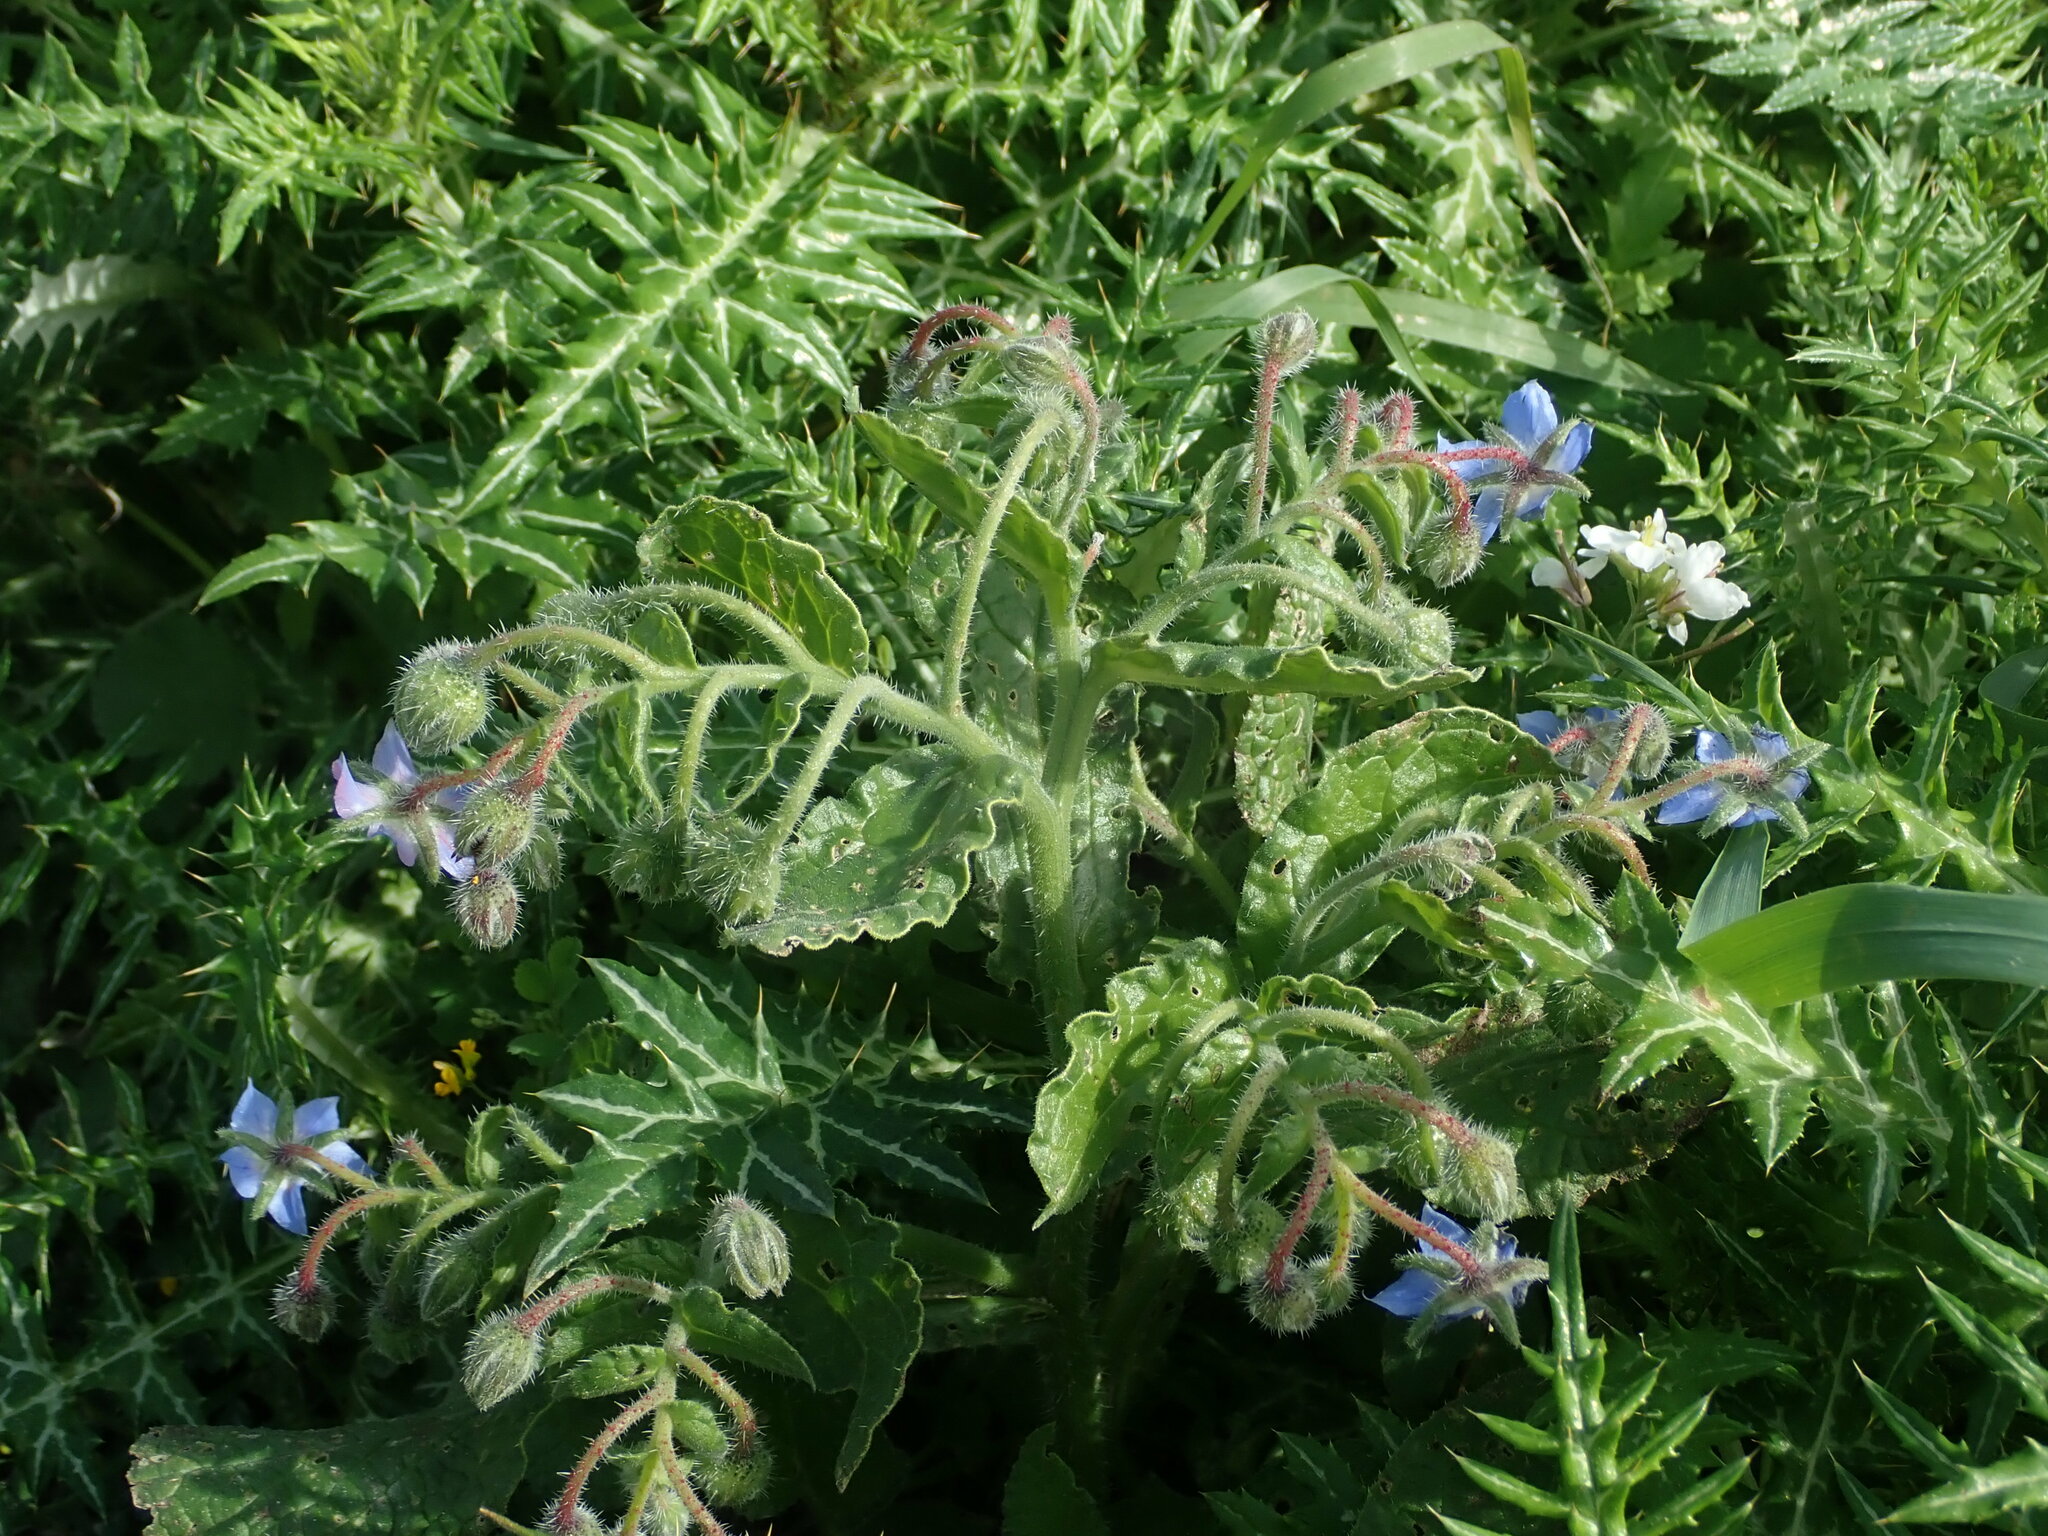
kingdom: Plantae
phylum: Tracheophyta
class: Magnoliopsida
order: Boraginales
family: Boraginaceae
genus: Borago
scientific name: Borago officinalis
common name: Borage
